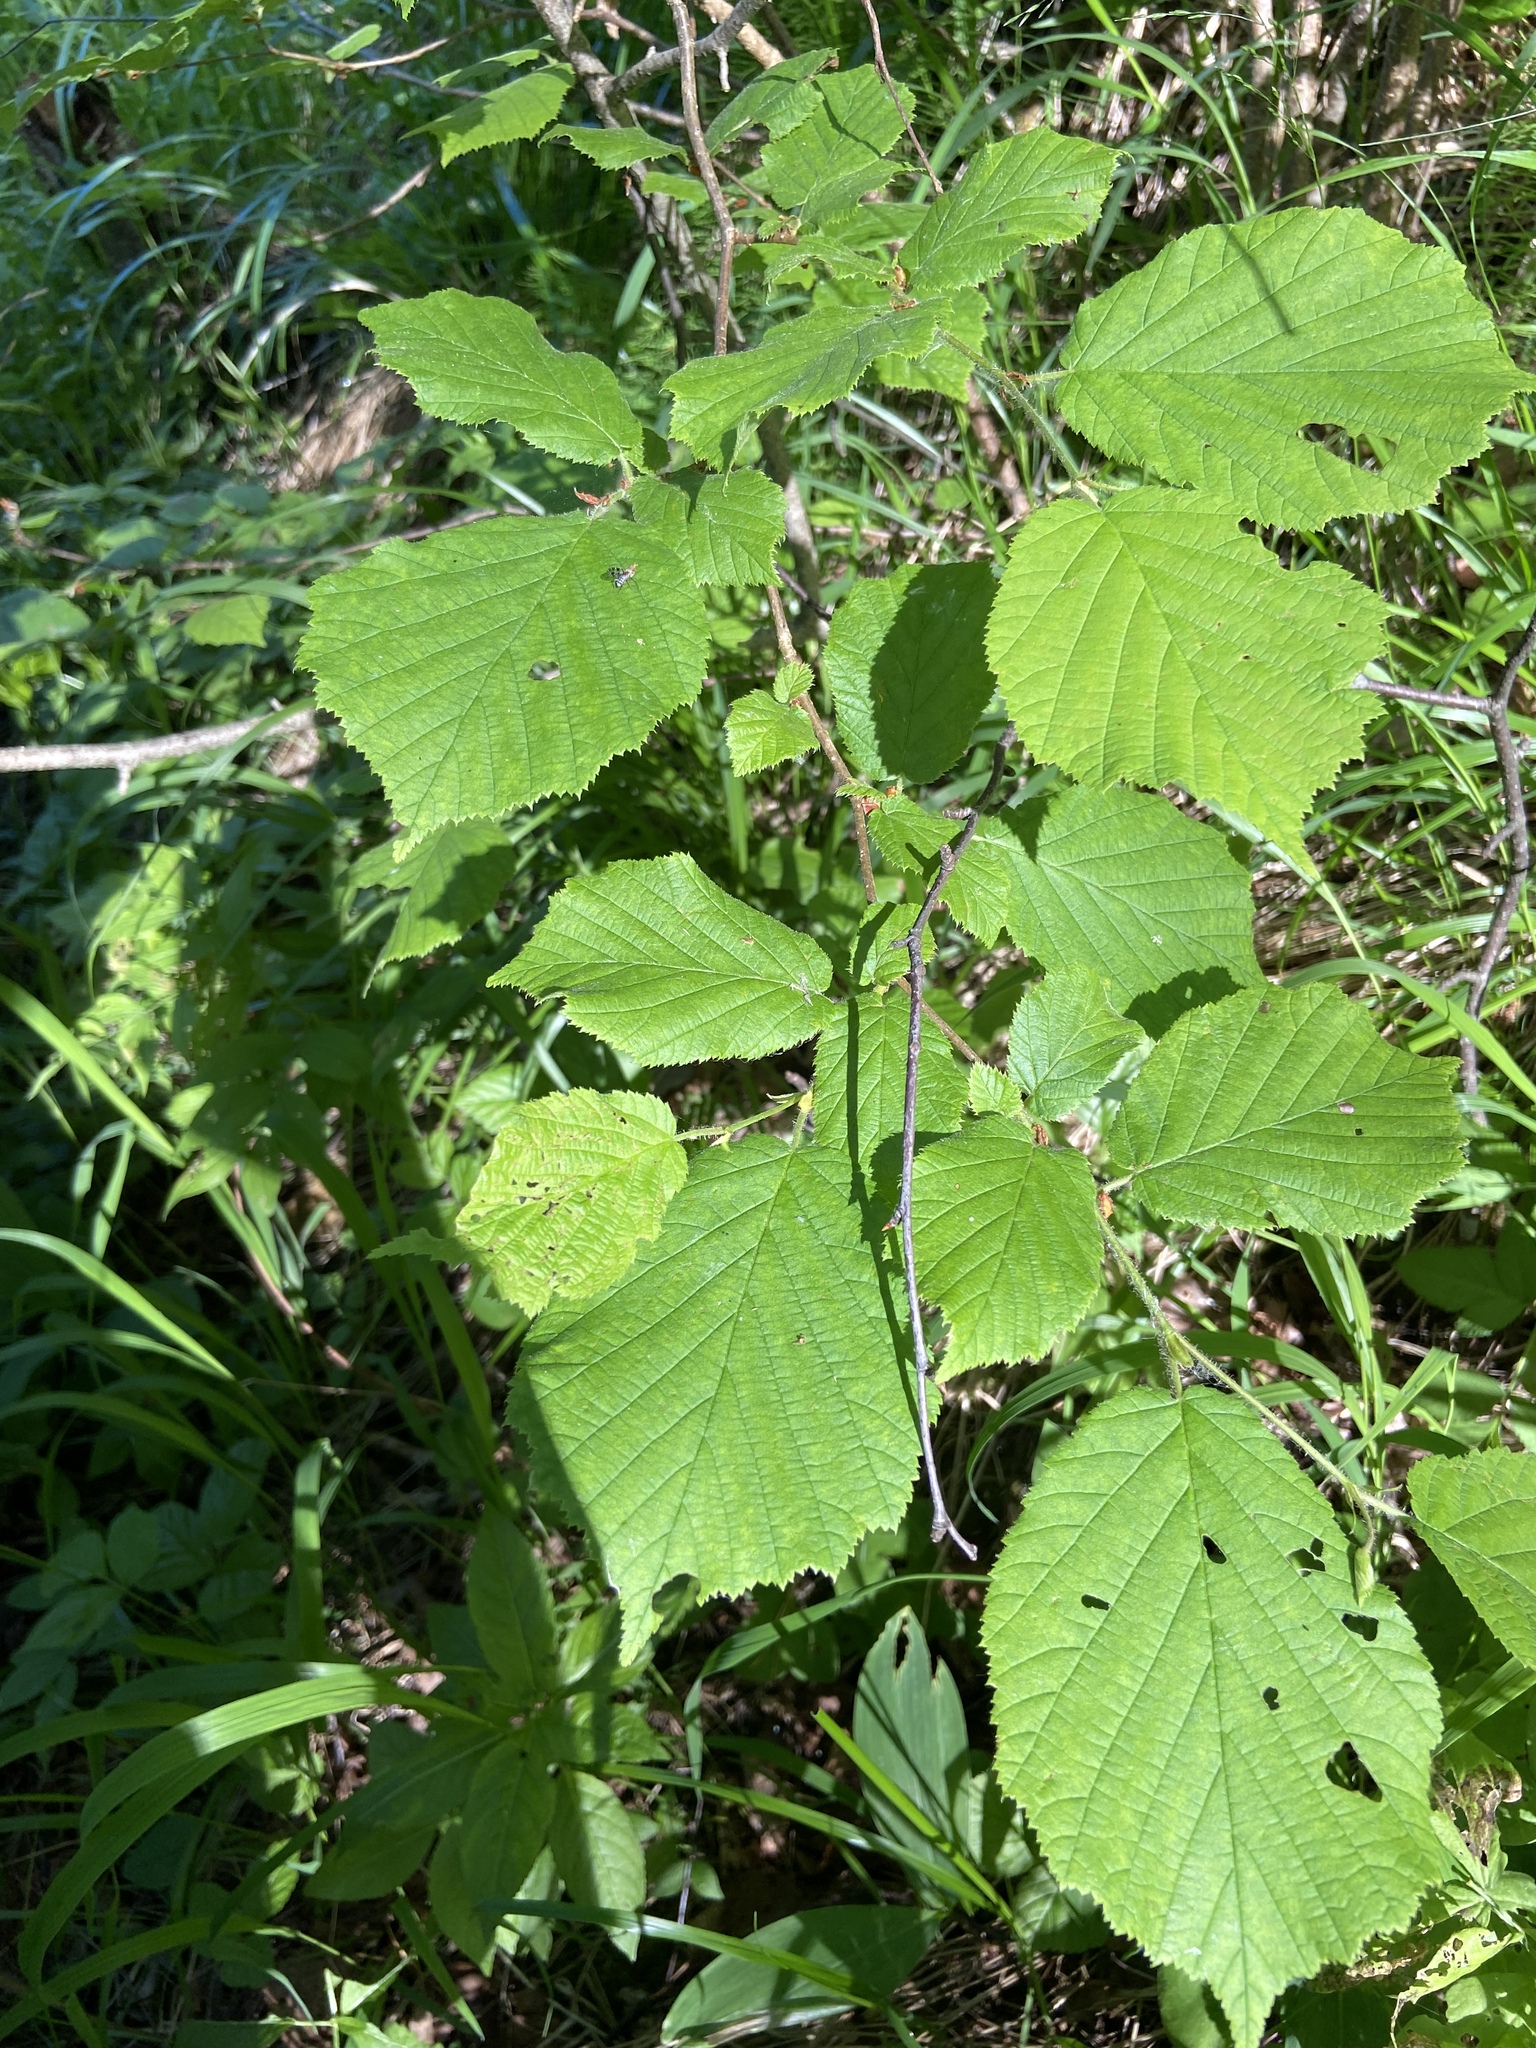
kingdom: Plantae
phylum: Tracheophyta
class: Magnoliopsida
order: Fagales
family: Betulaceae
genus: Corylus
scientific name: Corylus avellana
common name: European hazel
